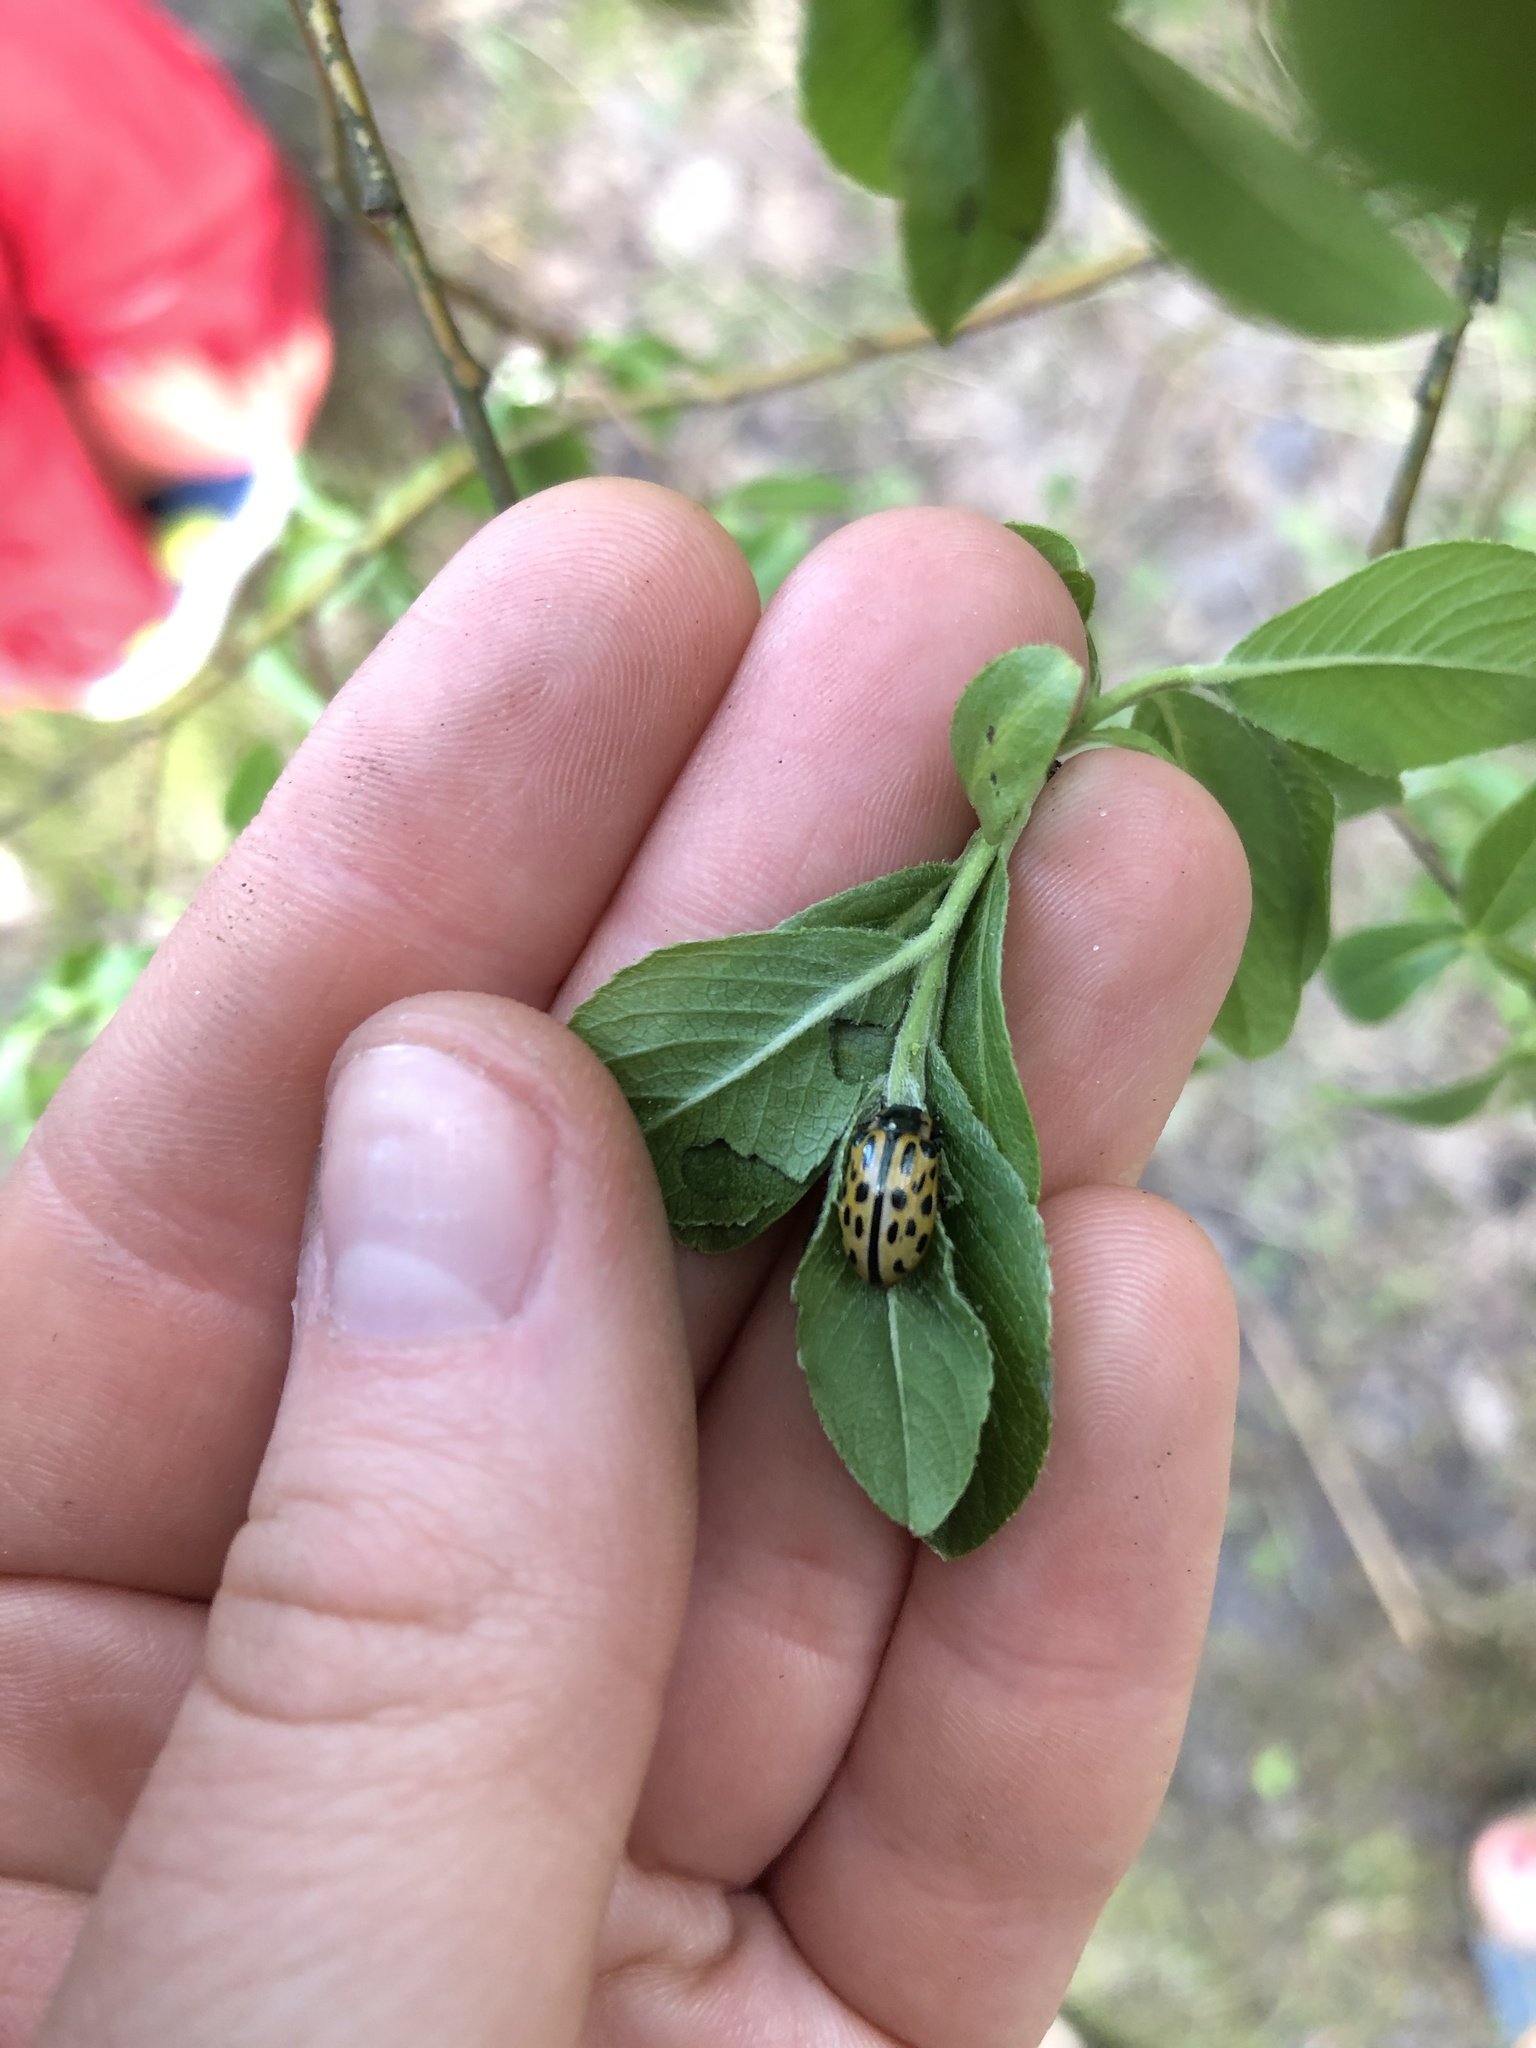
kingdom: Animalia
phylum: Arthropoda
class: Insecta
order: Coleoptera
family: Chrysomelidae
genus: Chrysomela
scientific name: Chrysomela vigintipunctata
